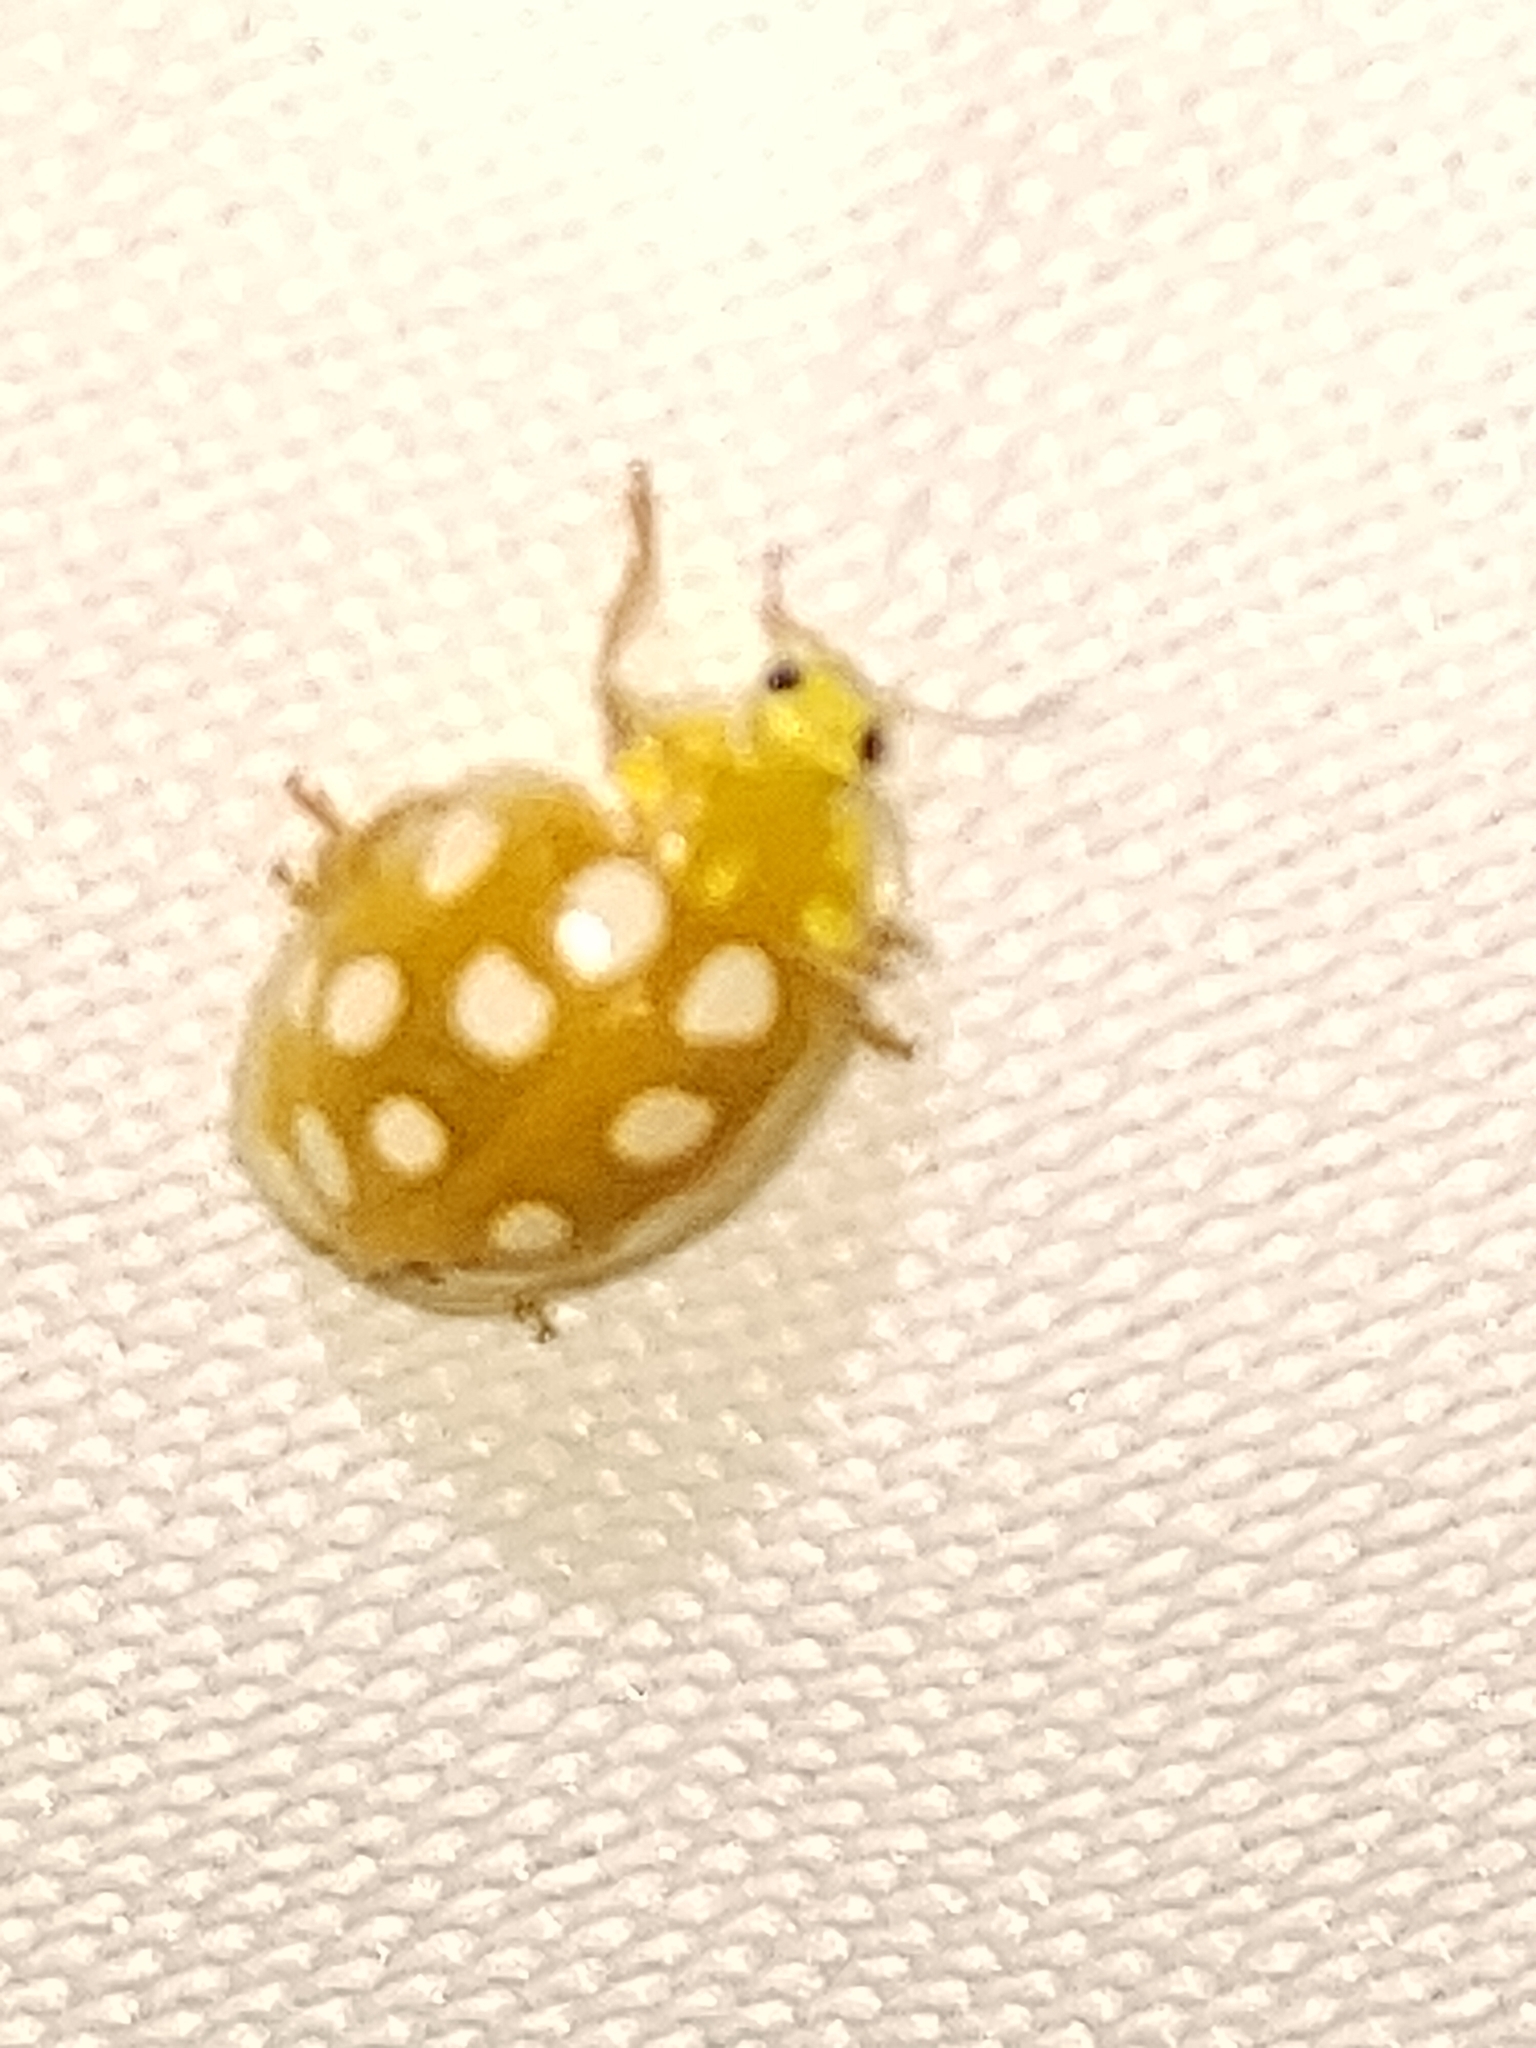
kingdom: Animalia
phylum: Arthropoda
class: Insecta
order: Coleoptera
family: Coccinellidae
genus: Halyzia
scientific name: Halyzia sedecimguttata
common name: Orange ladybird
